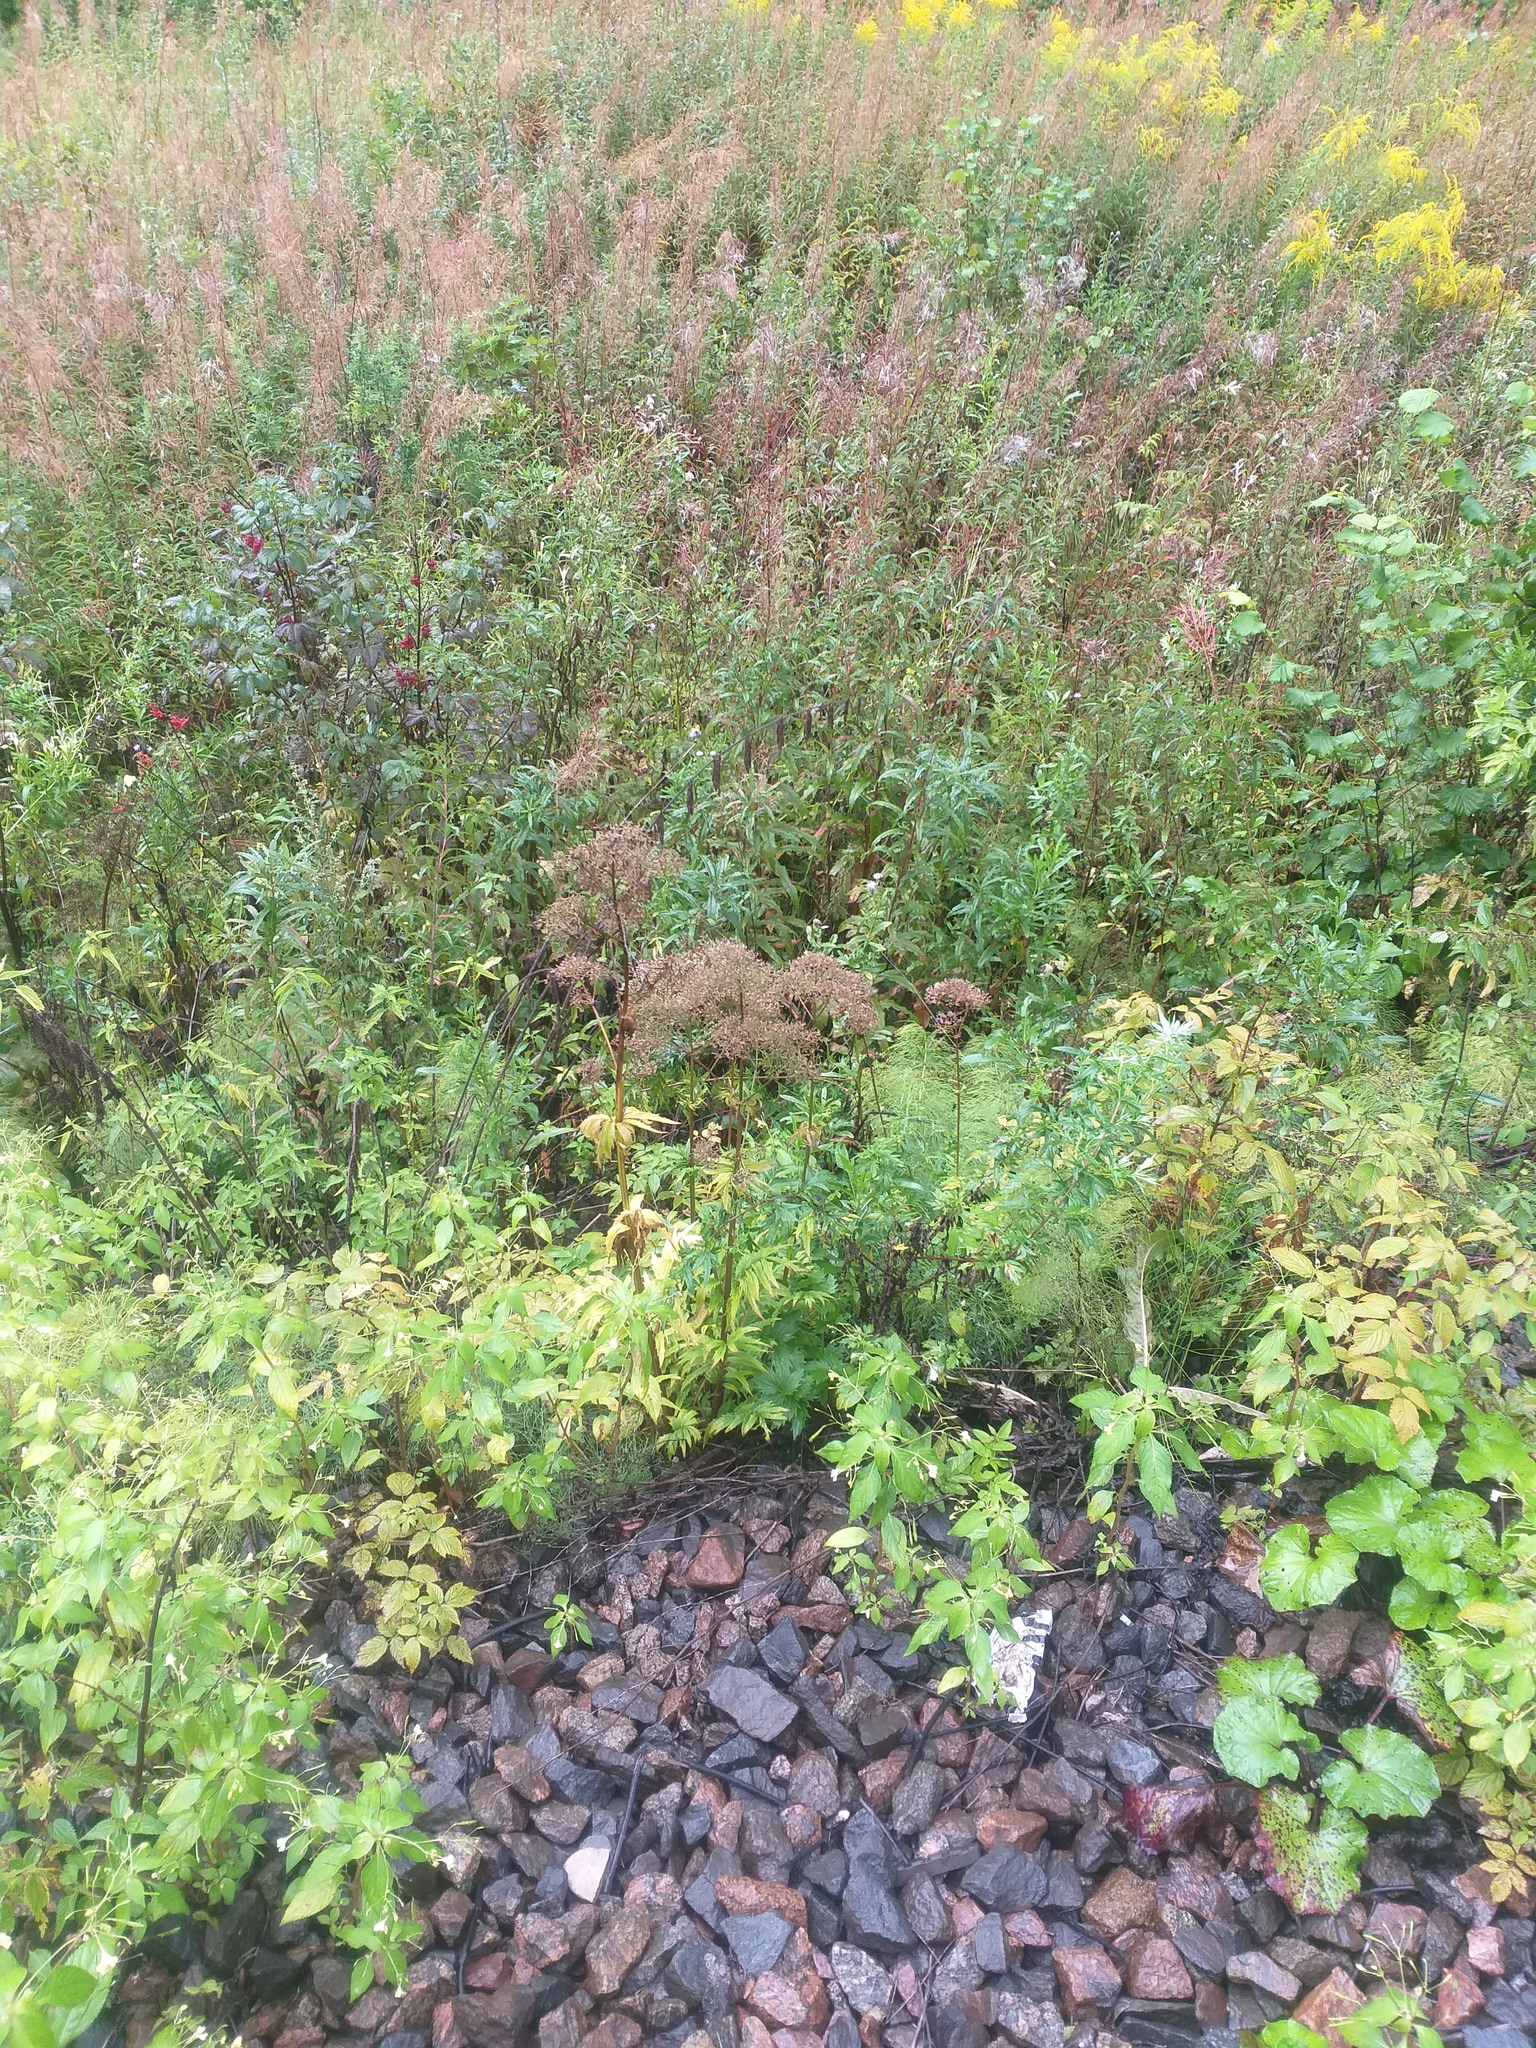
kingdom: Plantae
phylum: Tracheophyta
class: Magnoliopsida
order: Dipsacales
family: Caprifoliaceae
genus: Valeriana
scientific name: Valeriana officinalis
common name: Common valerian
